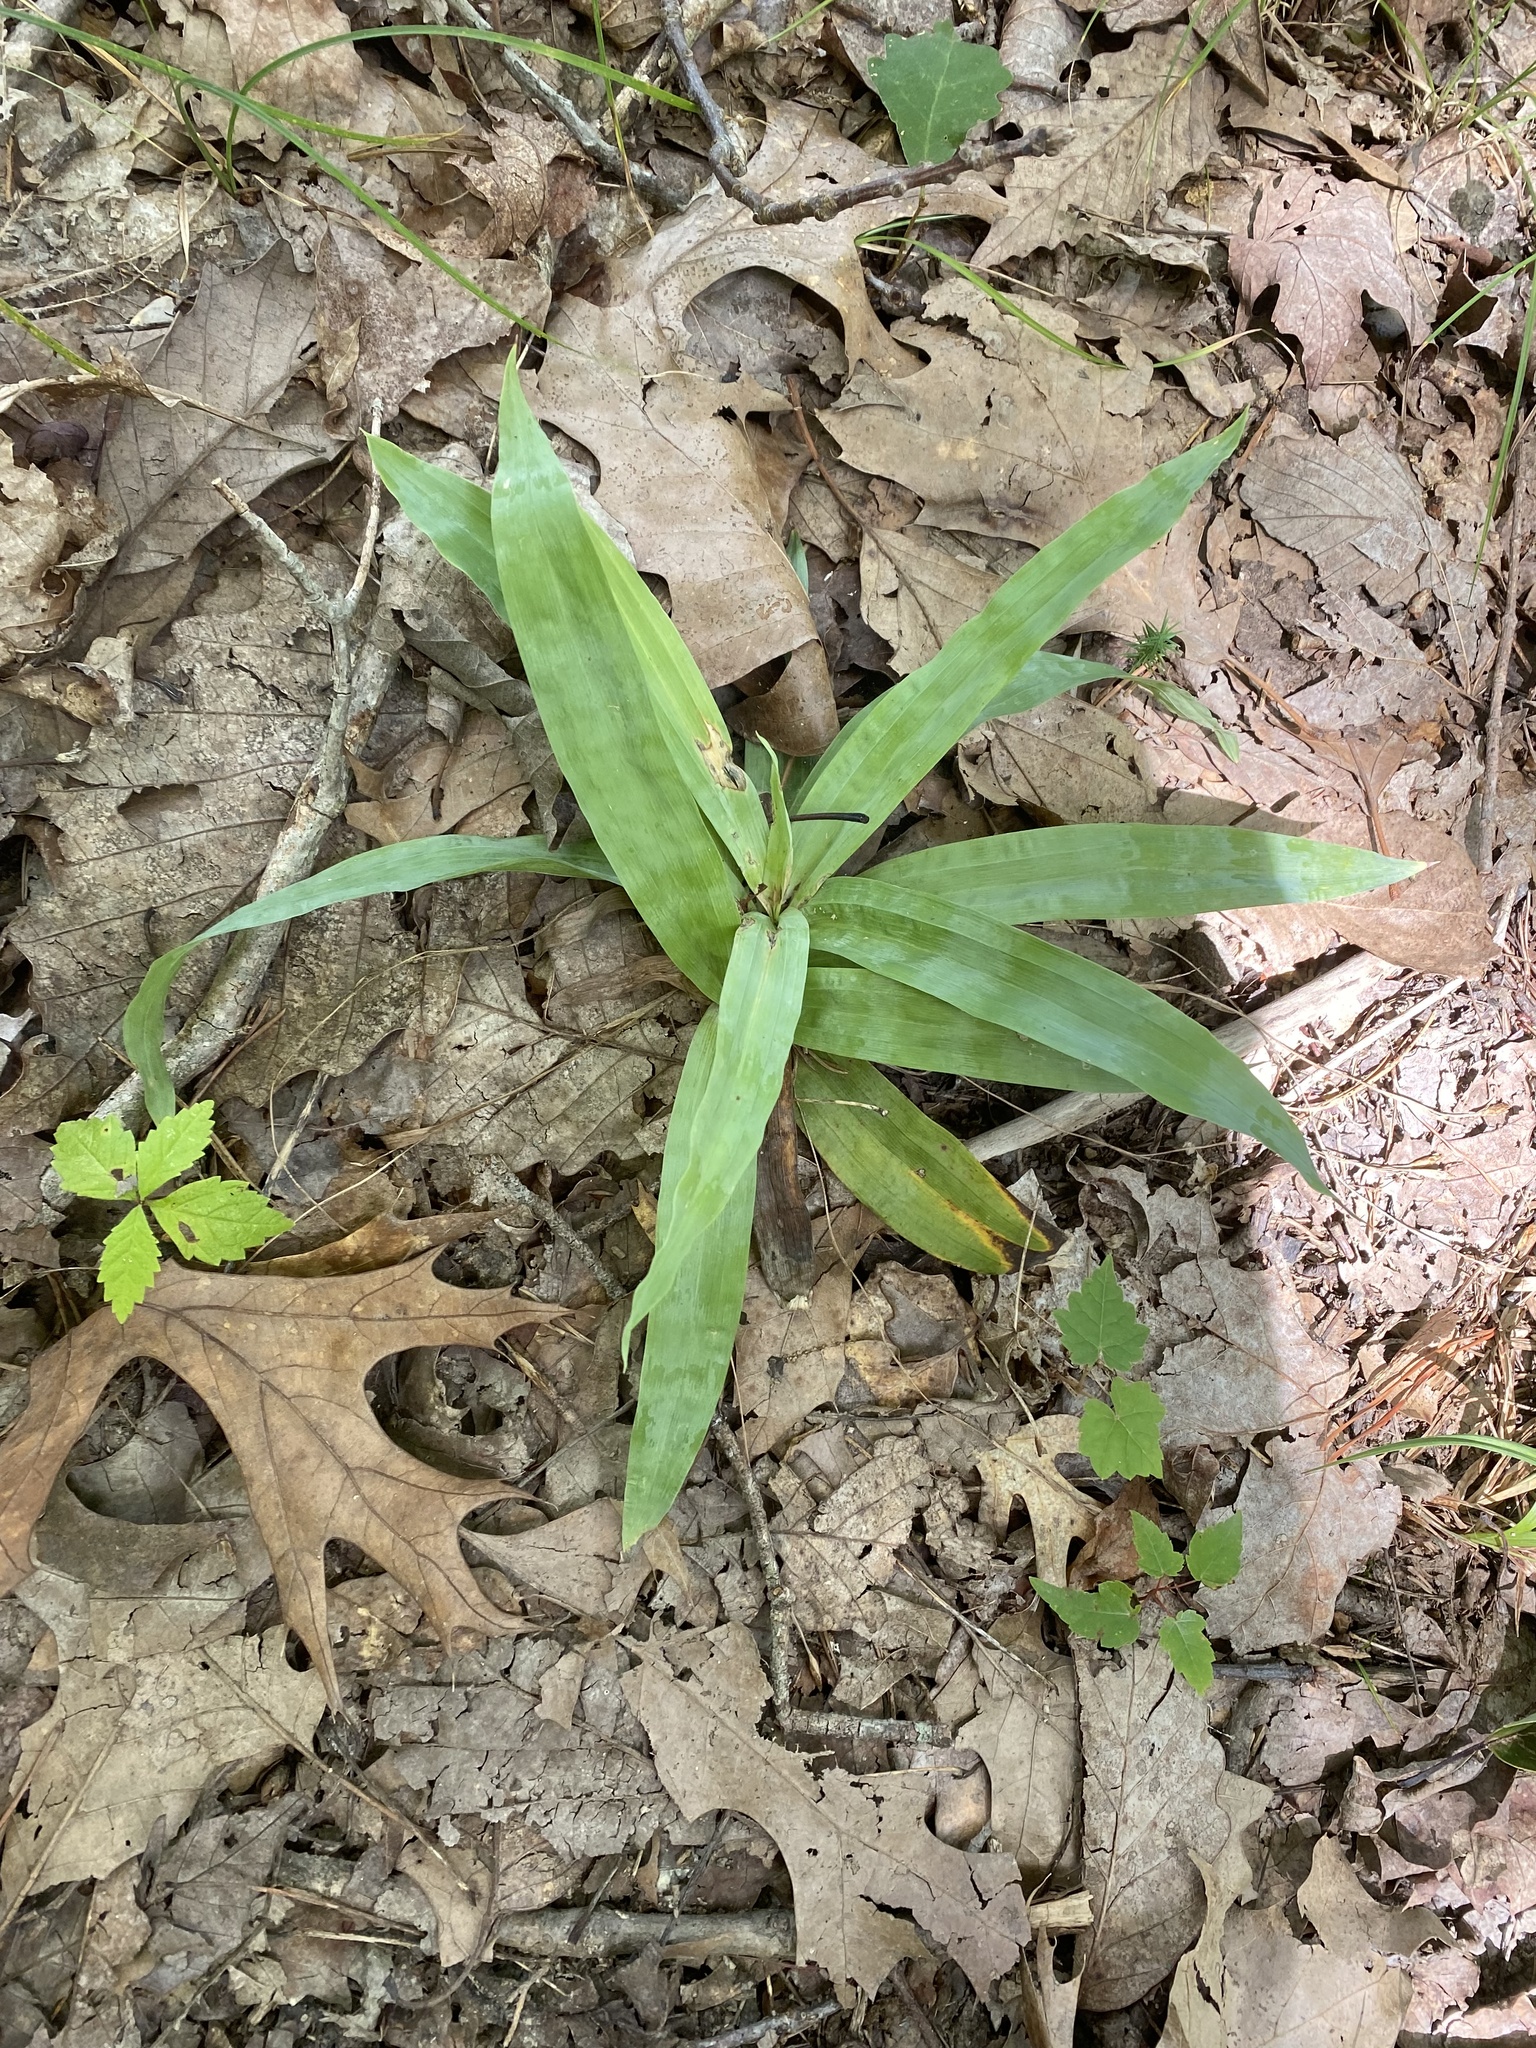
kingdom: Plantae
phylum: Tracheophyta
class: Liliopsida
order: Poales
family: Cyperaceae
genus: Carex
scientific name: Carex platyphylla
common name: Broad-leaved sedge
